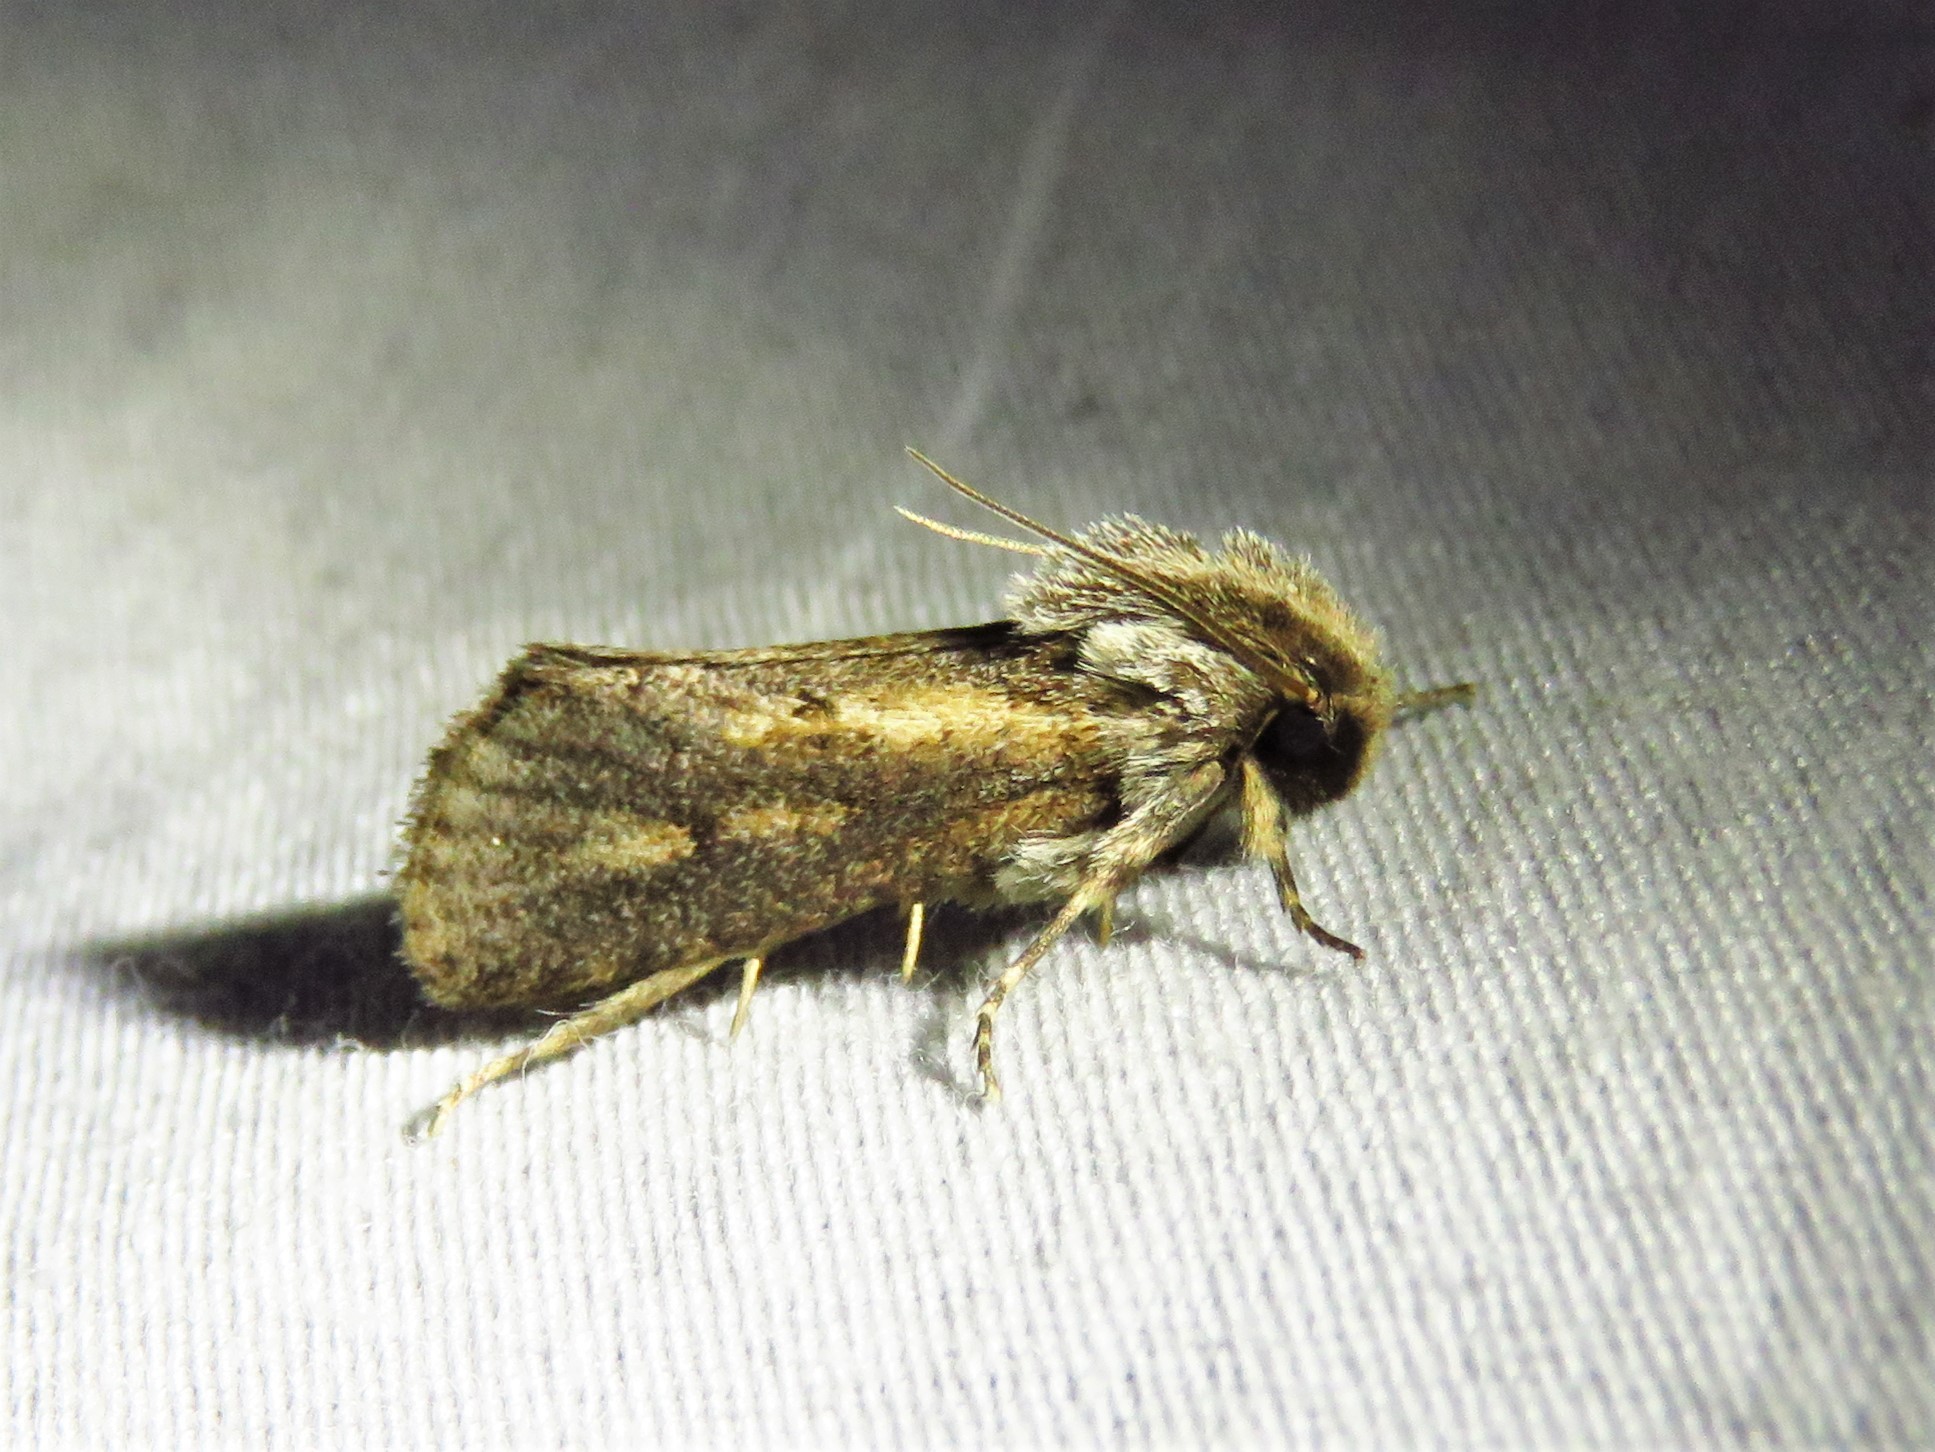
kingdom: Animalia
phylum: Arthropoda
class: Insecta
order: Lepidoptera
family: Tineidae
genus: Acrolophus
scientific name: Acrolophus popeanella
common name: Clemens' grass tubeworm moth
